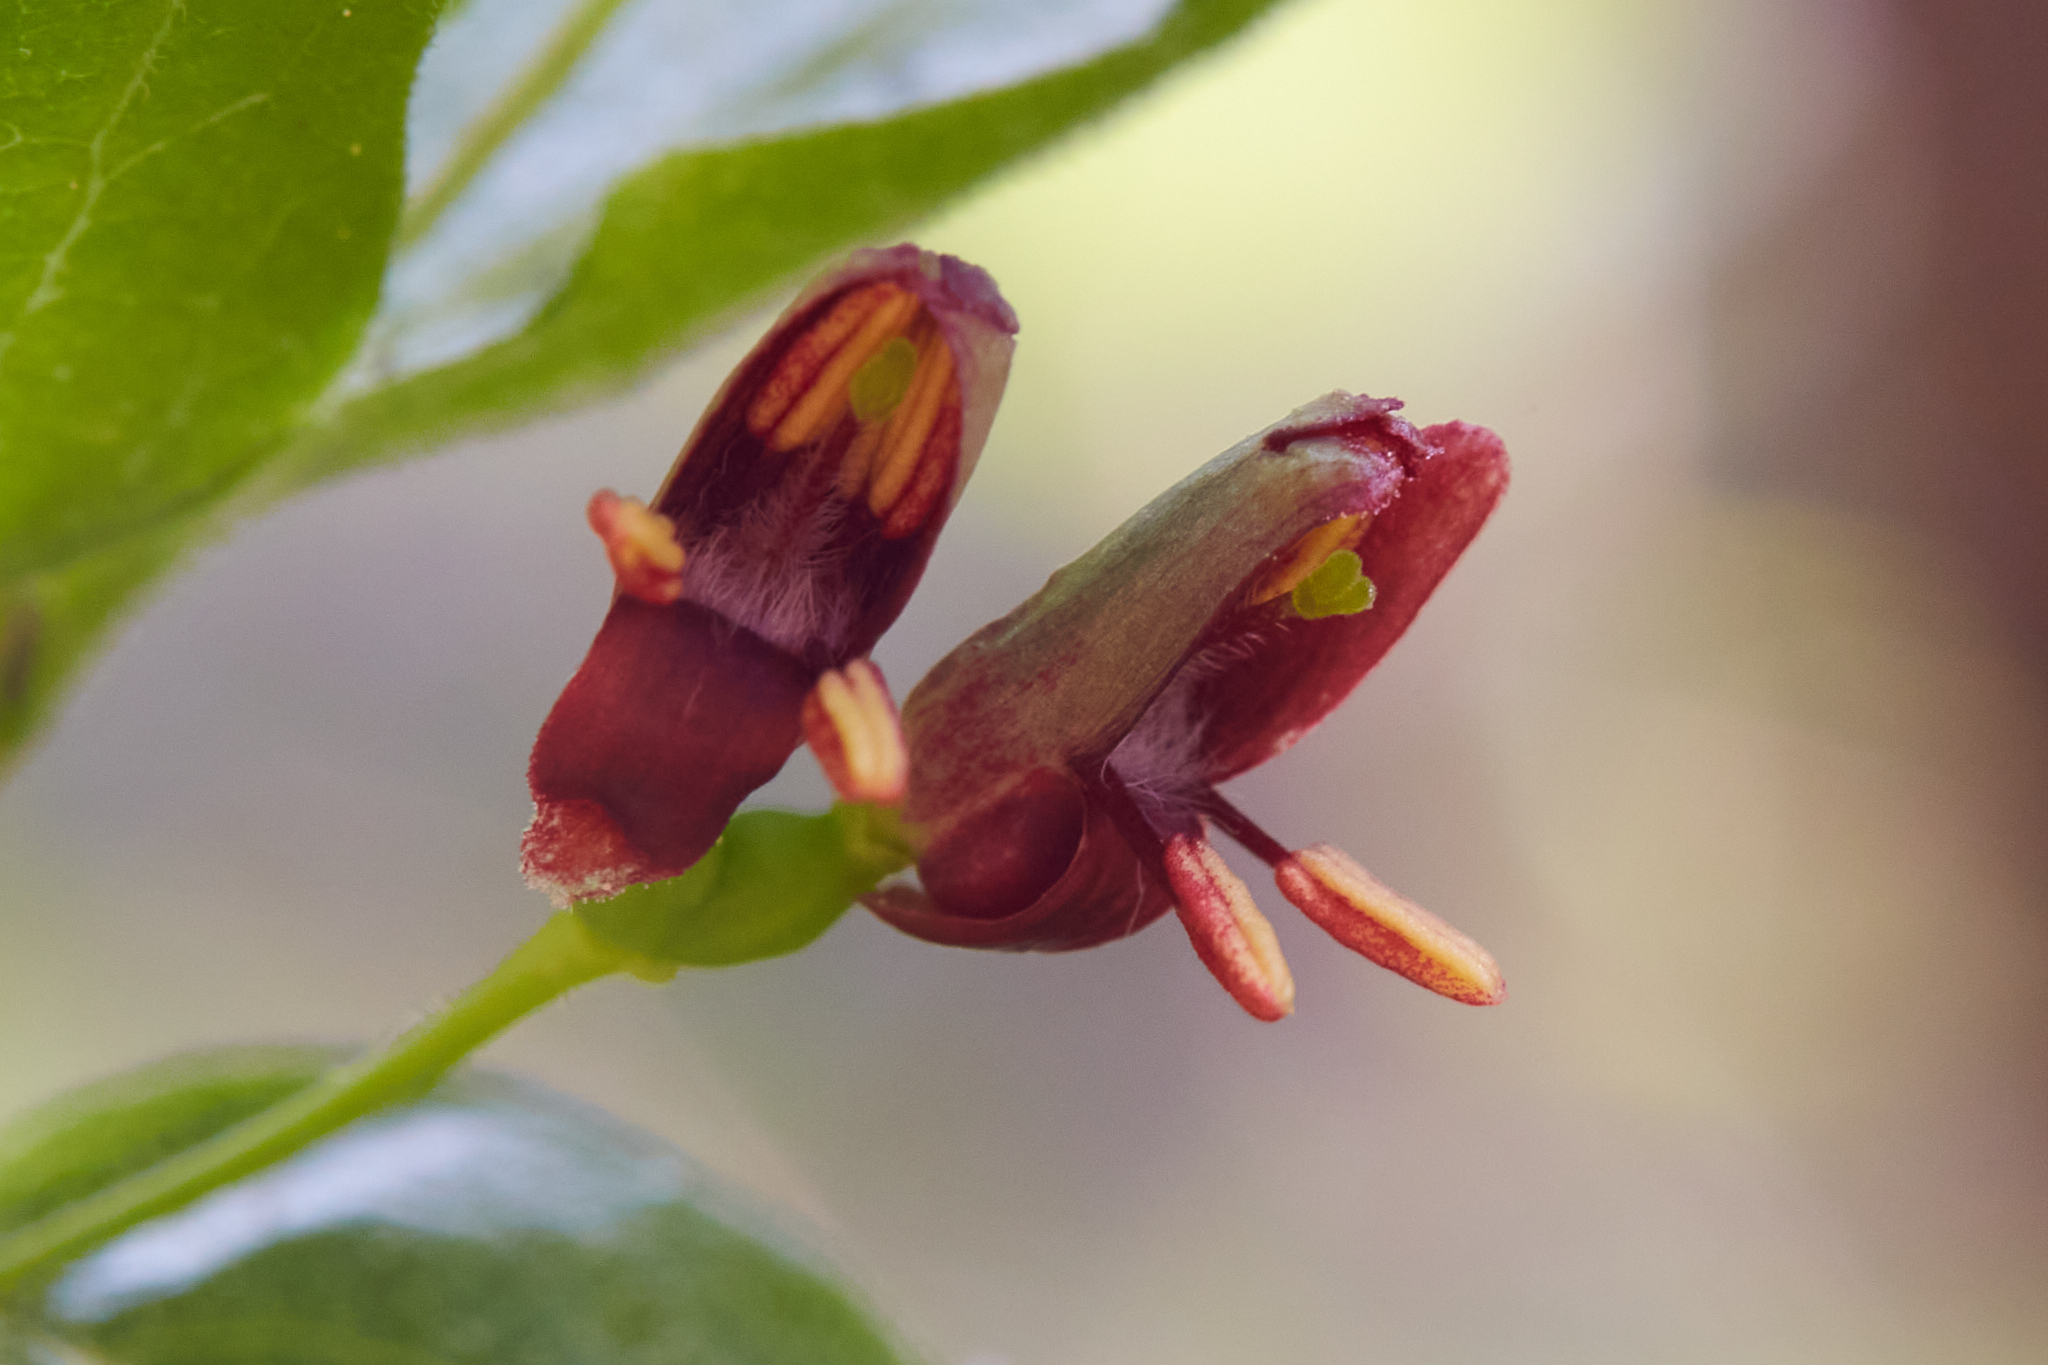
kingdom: Plantae
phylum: Tracheophyta
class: Magnoliopsida
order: Dipsacales
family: Caprifoliaceae
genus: Lonicera
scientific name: Lonicera conjugialis
